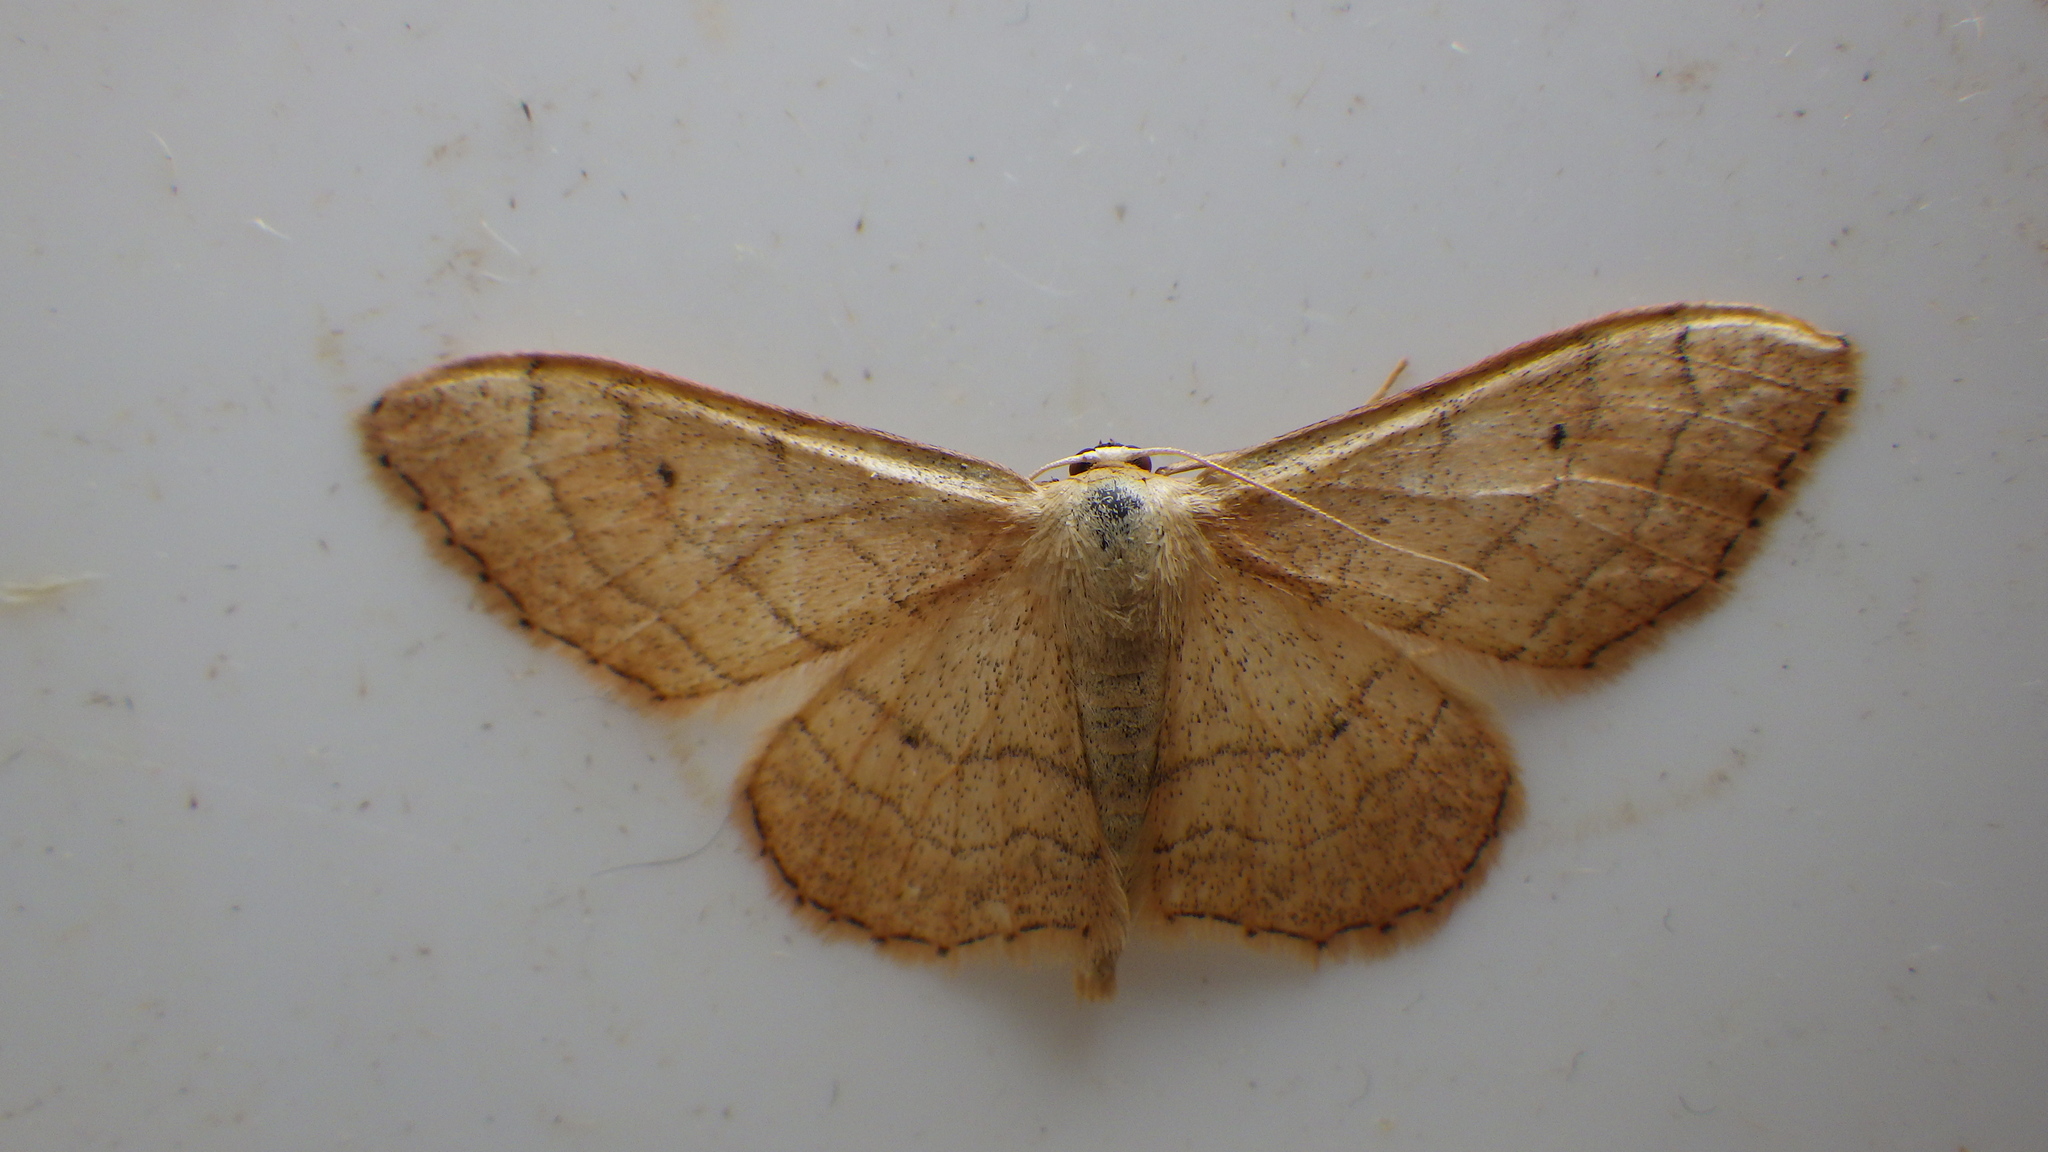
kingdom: Animalia
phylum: Arthropoda
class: Insecta
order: Lepidoptera
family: Geometridae
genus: Idaea
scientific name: Idaea aversata
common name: Riband wave
